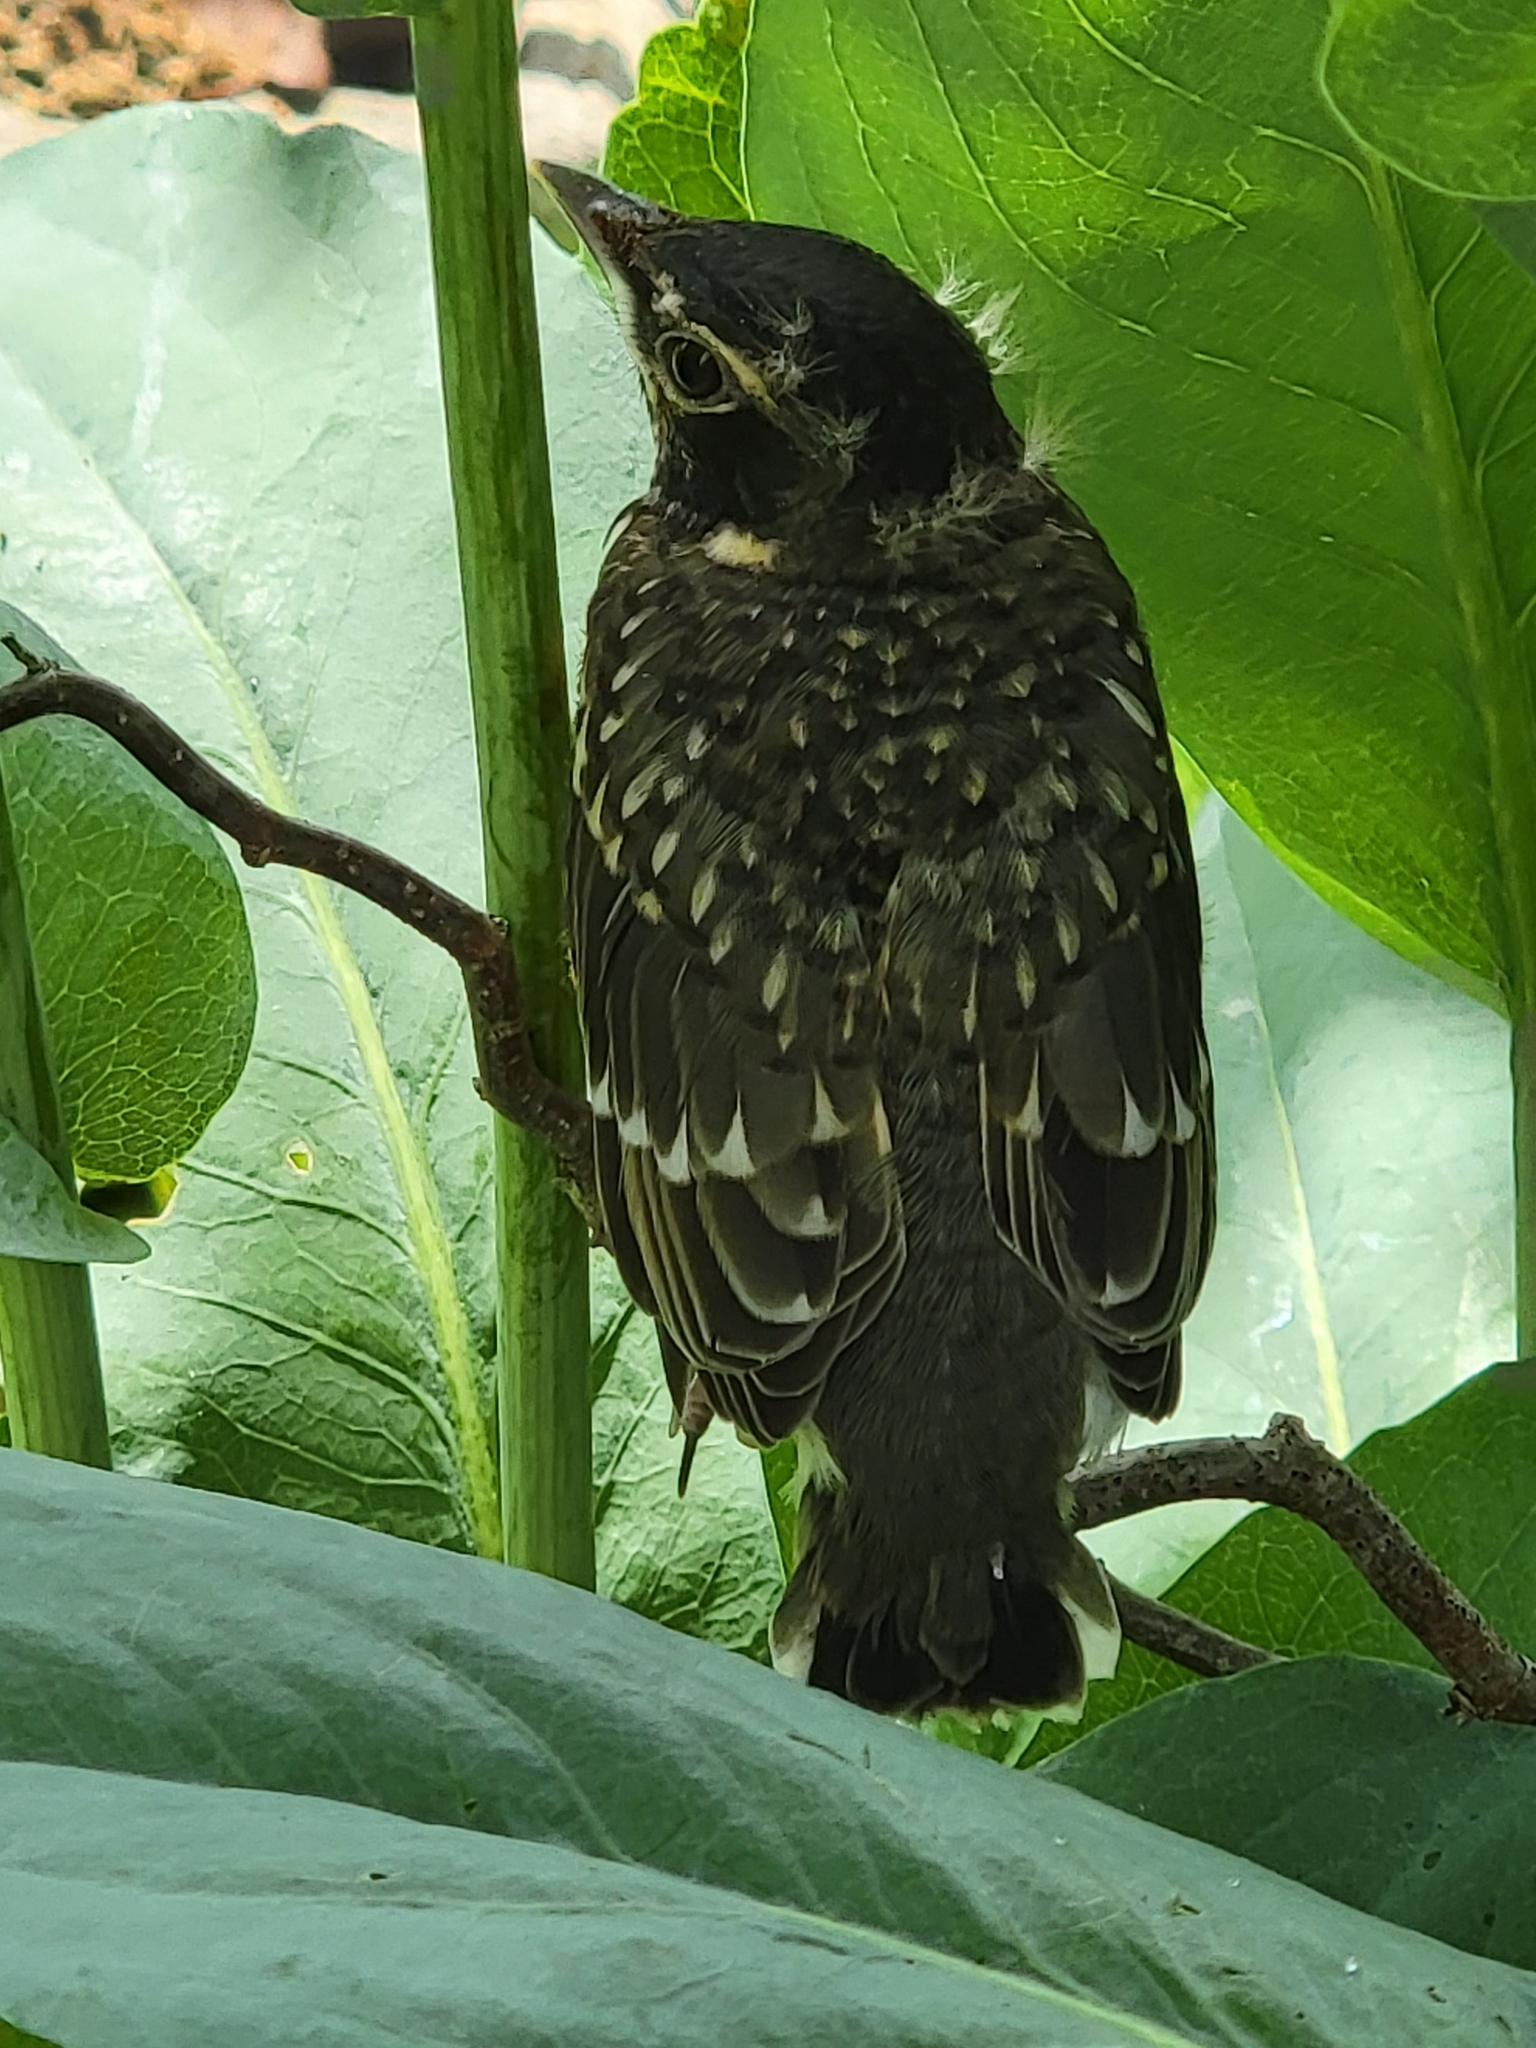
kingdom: Animalia
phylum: Chordata
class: Aves
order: Passeriformes
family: Turdidae
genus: Turdus
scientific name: Turdus migratorius
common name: American robin
